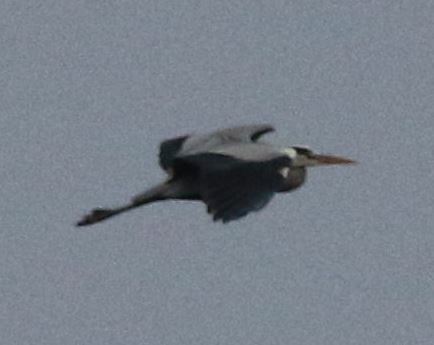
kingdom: Animalia
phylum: Chordata
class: Aves
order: Pelecaniformes
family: Ardeidae
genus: Ardea
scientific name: Ardea cinerea
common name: Grey heron
